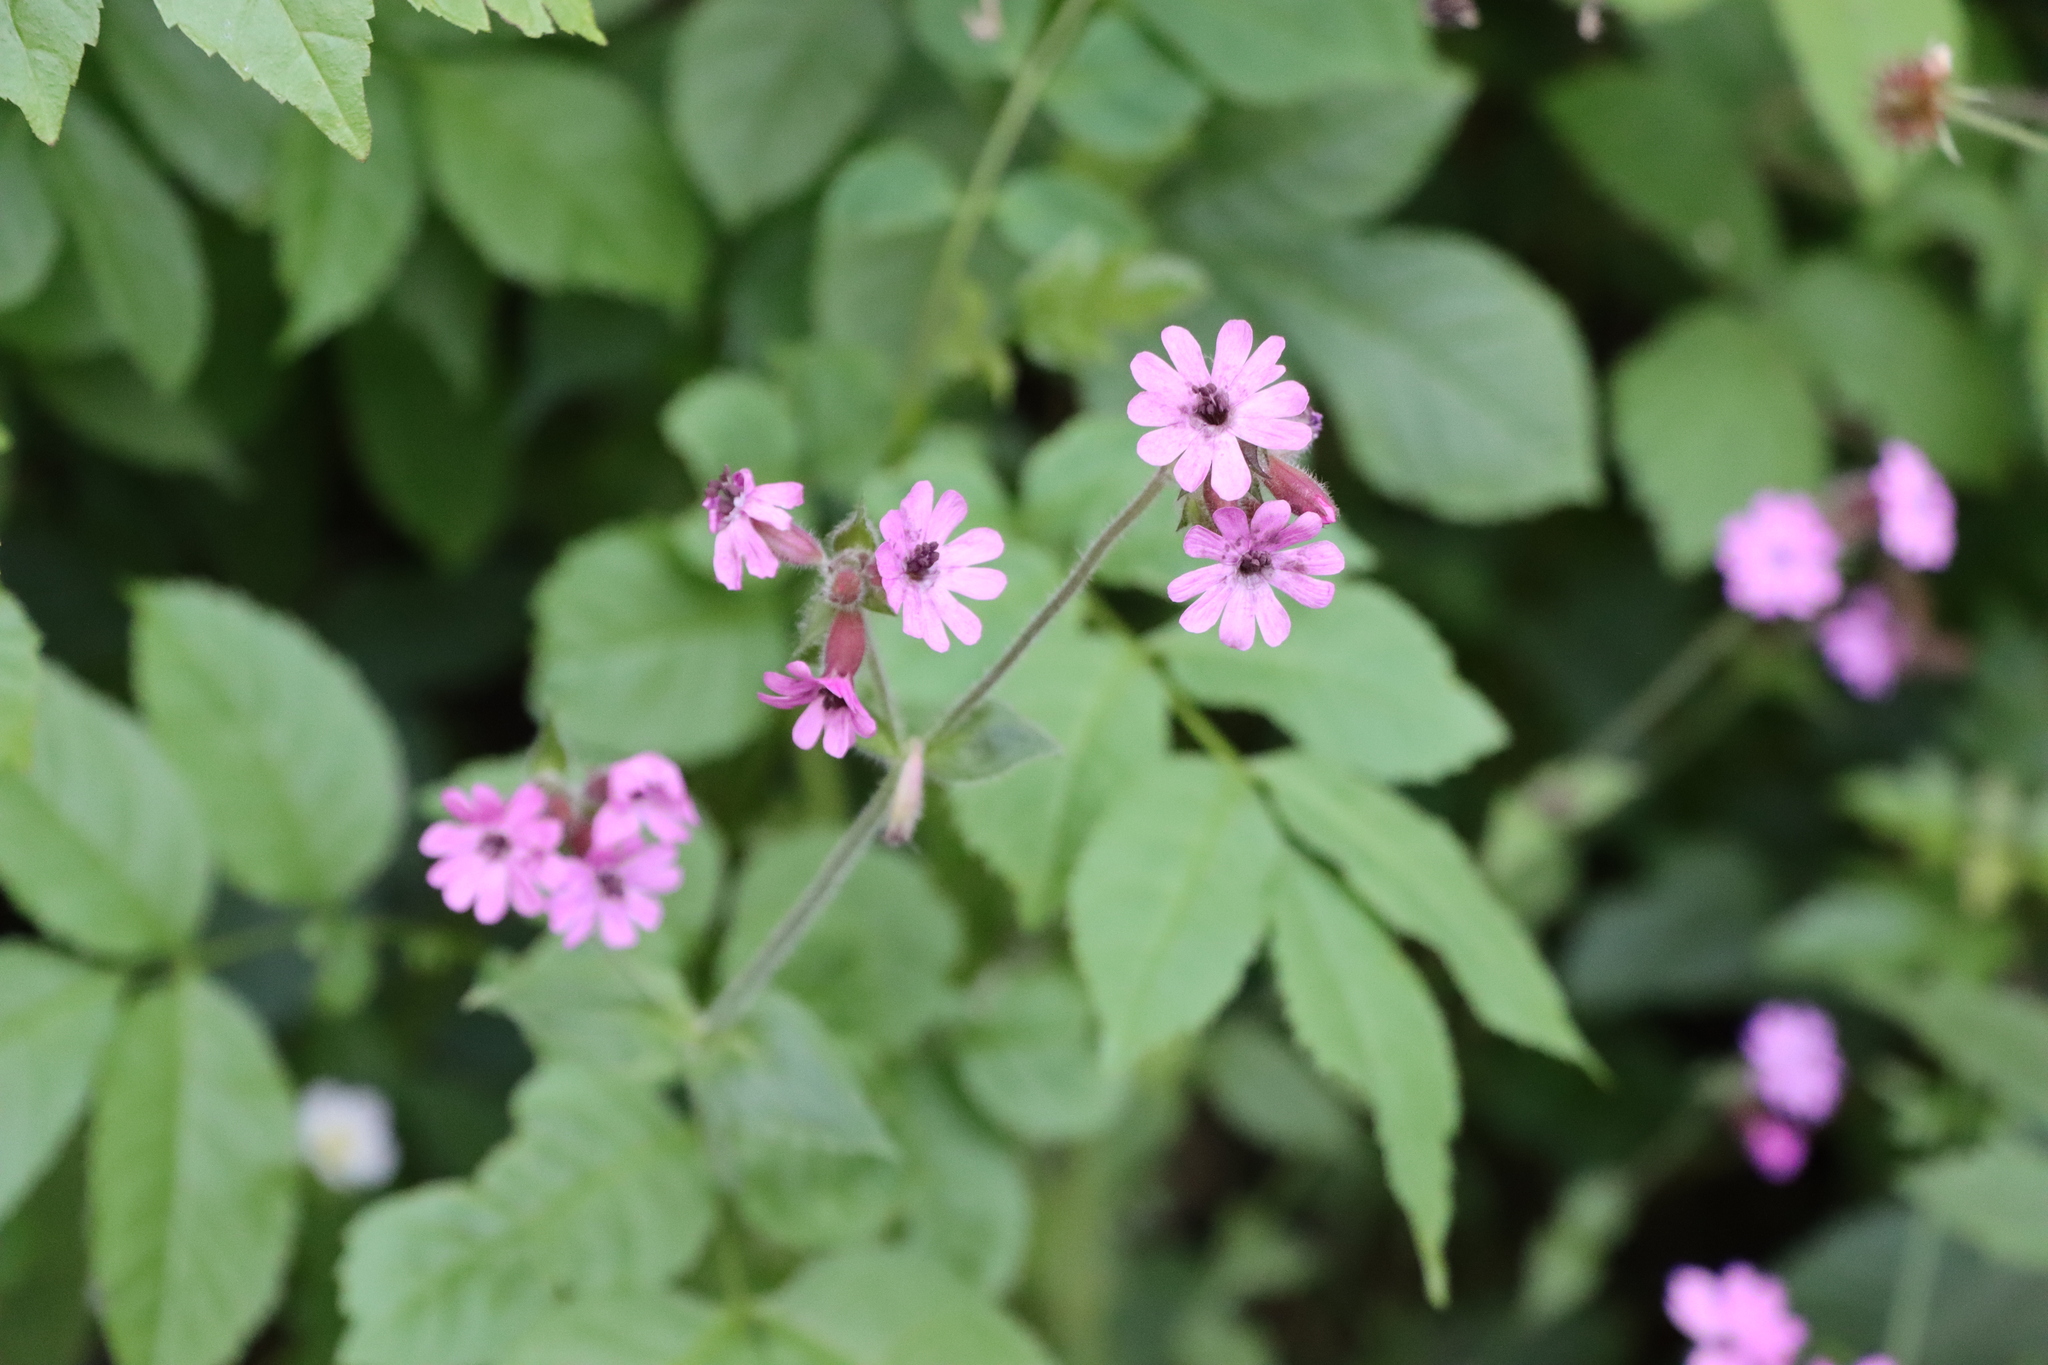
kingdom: Plantae
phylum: Tracheophyta
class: Magnoliopsida
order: Caryophyllales
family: Caryophyllaceae
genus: Silene
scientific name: Silene dioica
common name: Red campion
